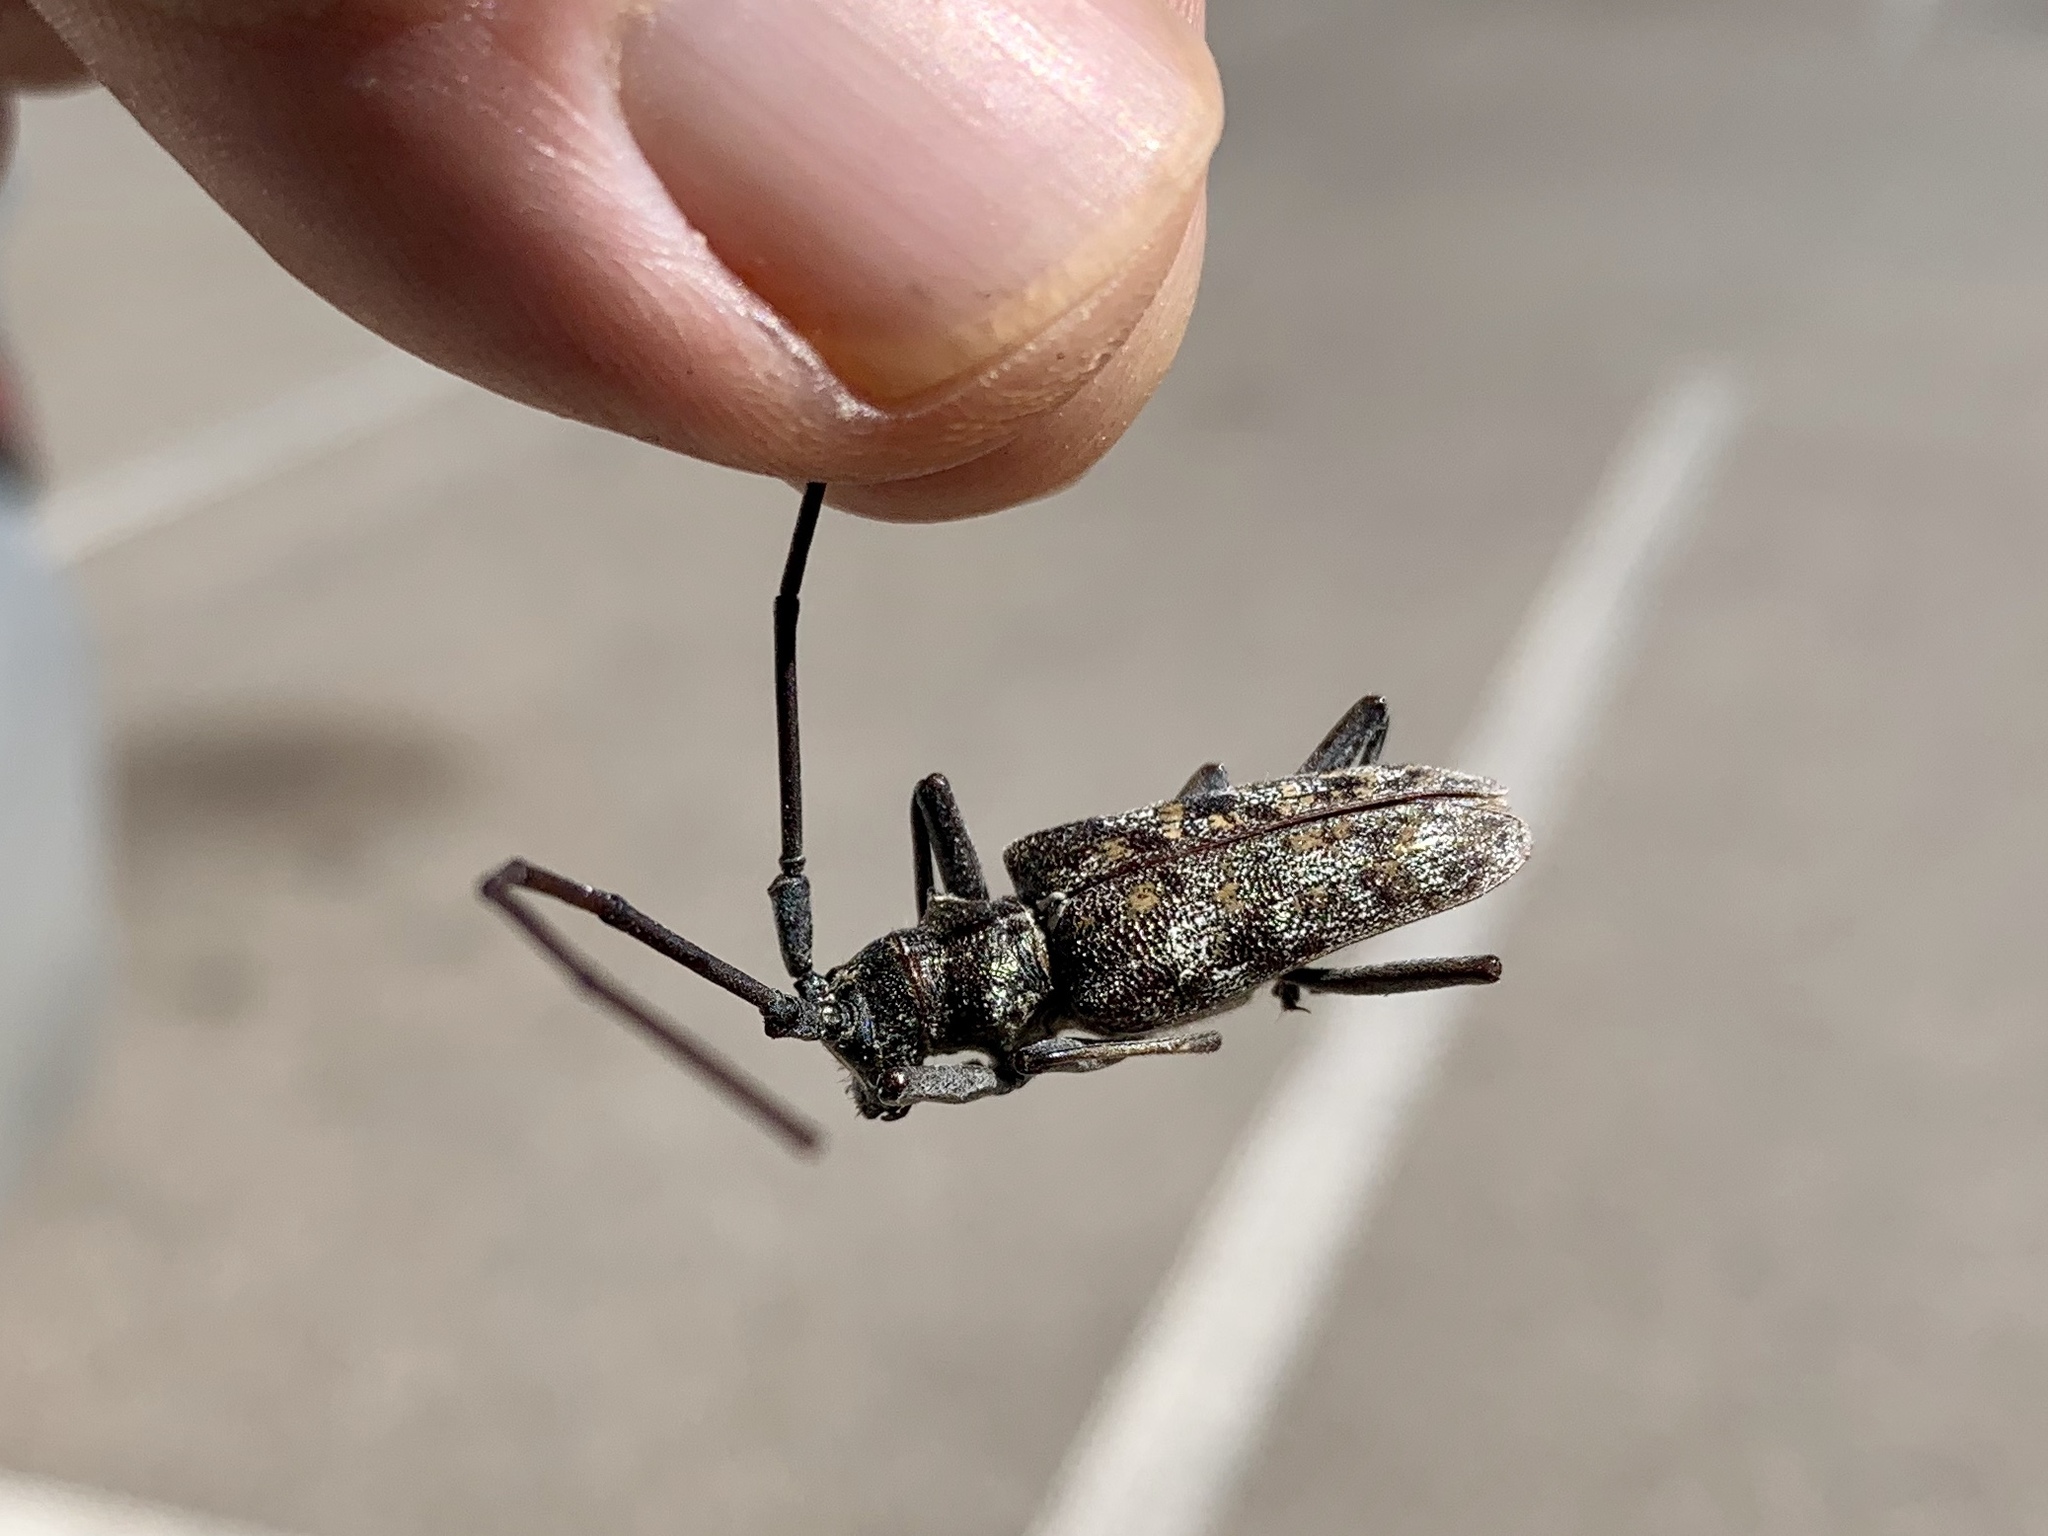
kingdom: Animalia
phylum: Arthropoda
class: Insecta
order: Coleoptera
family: Cerambycidae
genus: Monochamus
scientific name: Monochamus clamator
